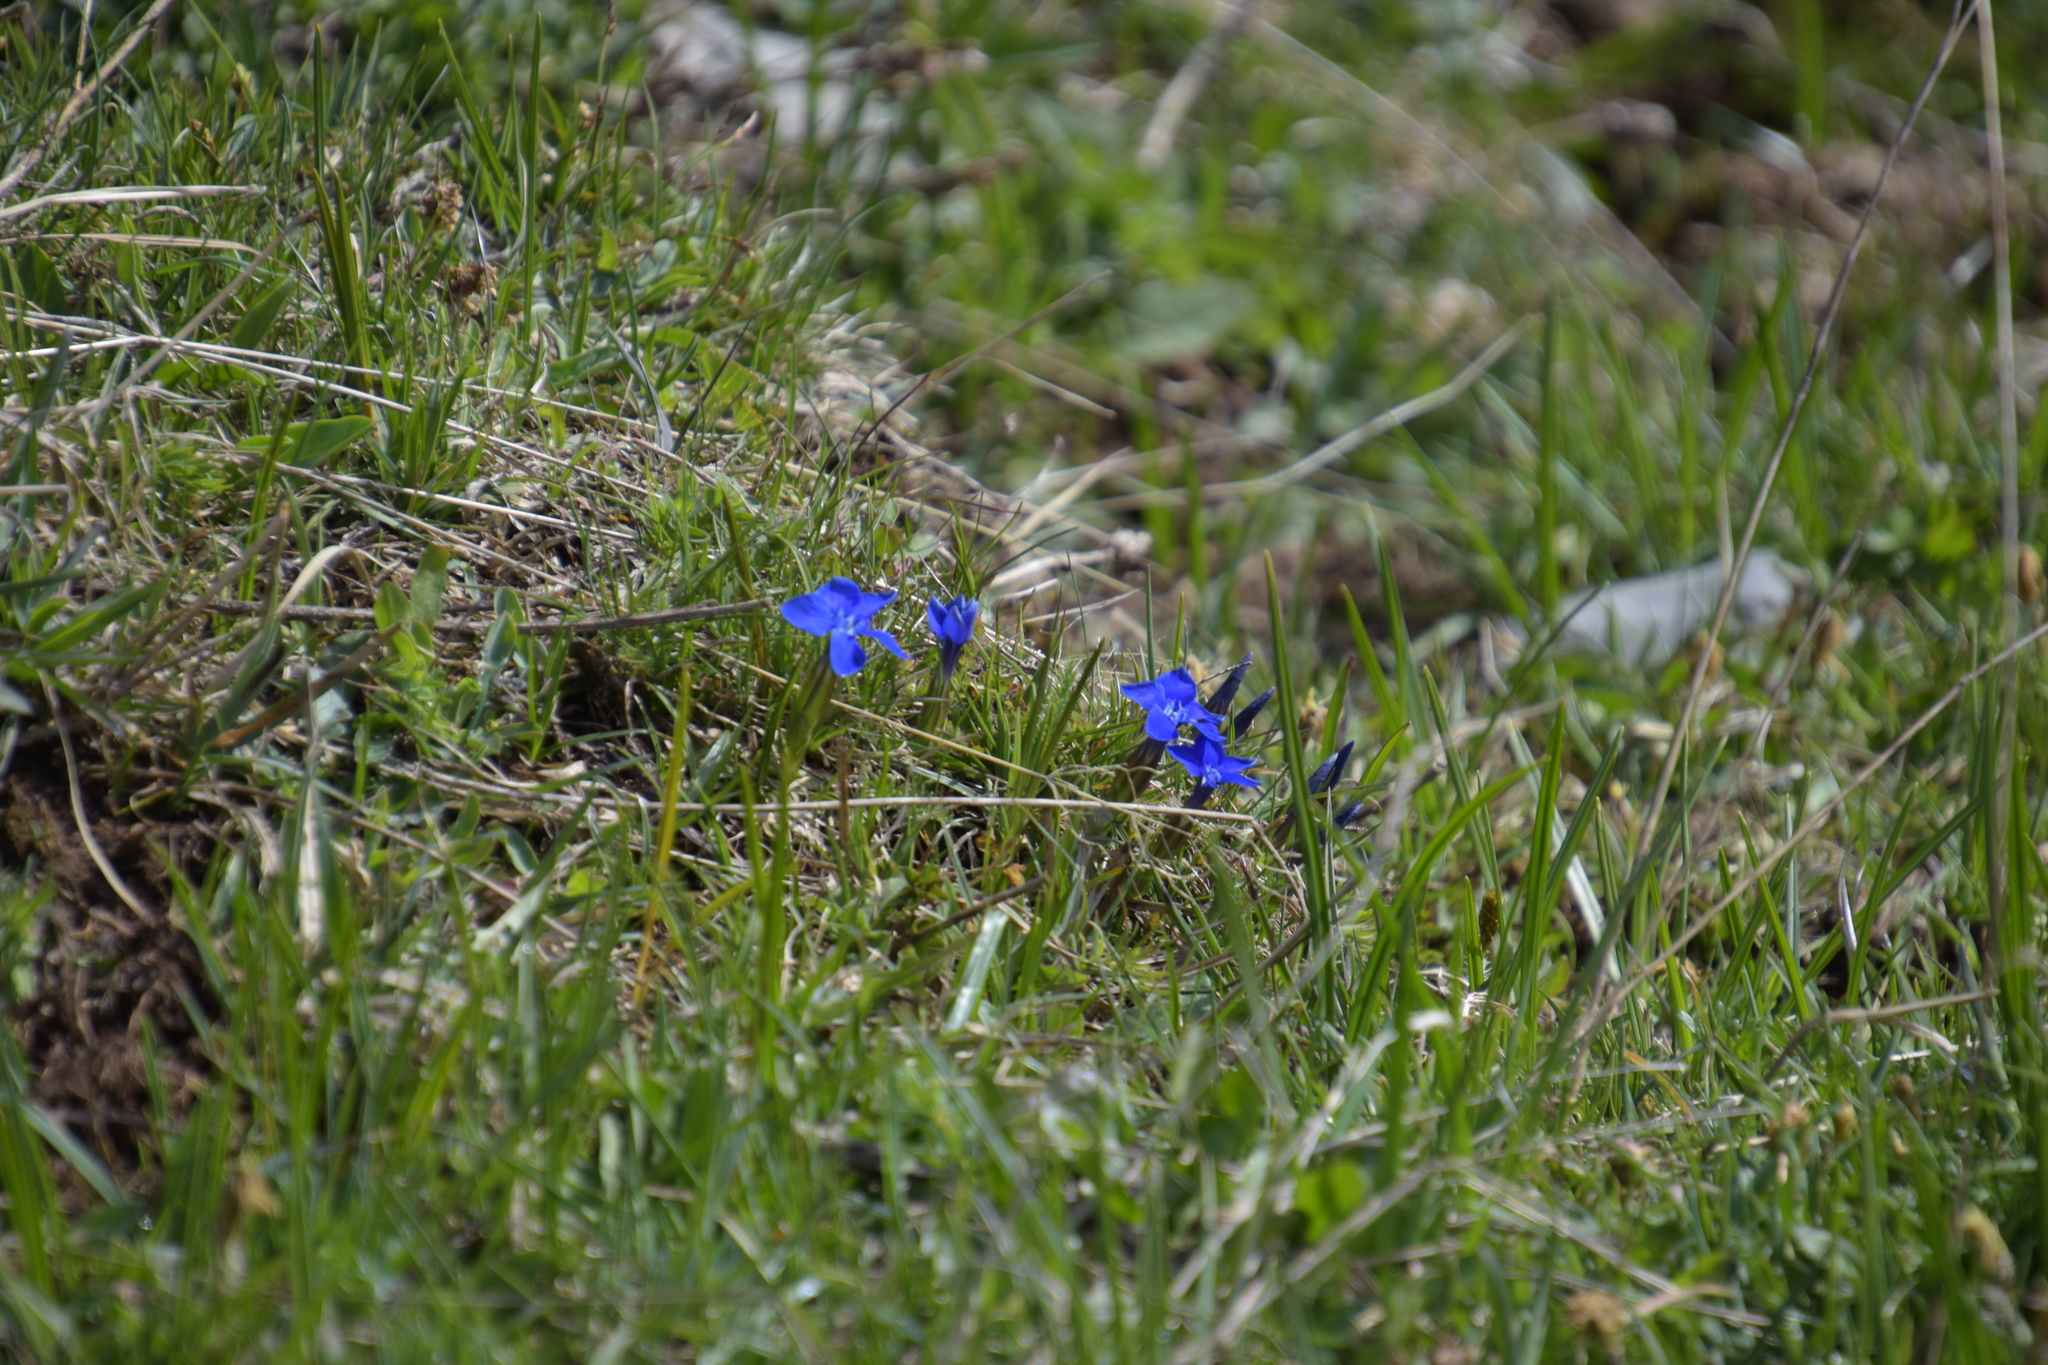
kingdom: Plantae
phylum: Tracheophyta
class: Magnoliopsida
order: Gentianales
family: Gentianaceae
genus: Gentiana
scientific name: Gentiana verna
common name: Spring gentian
